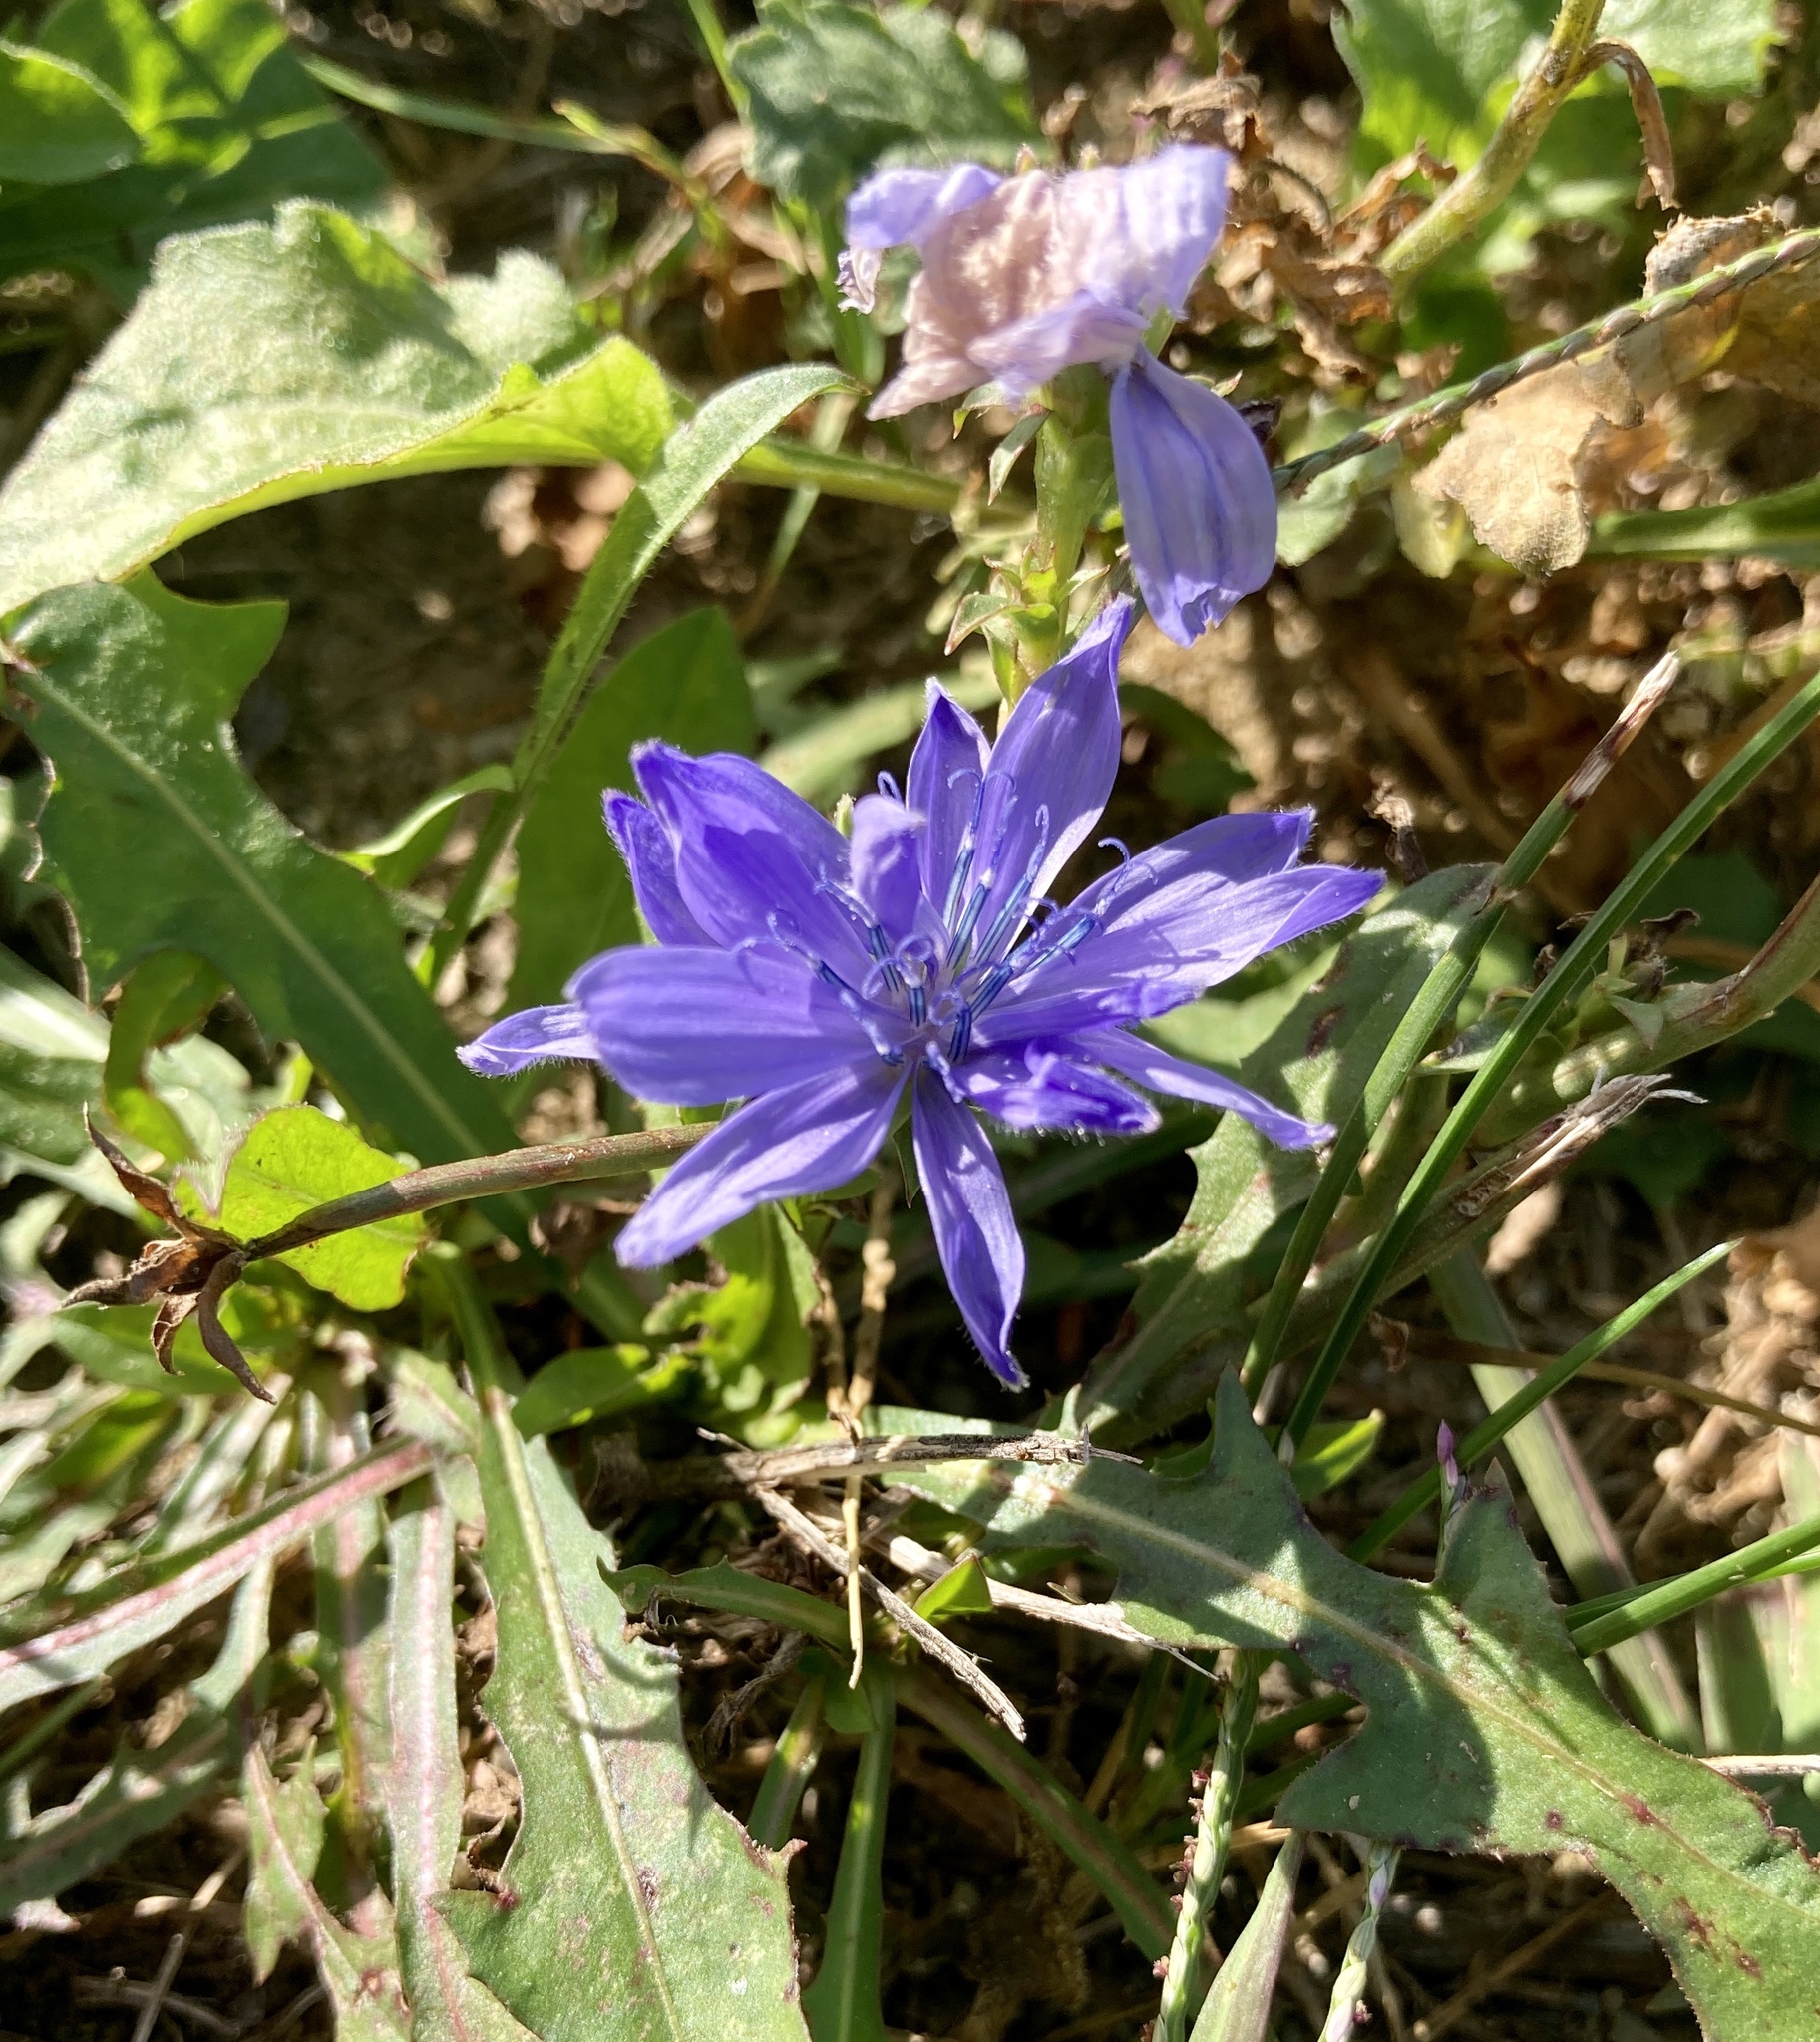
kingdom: Plantae
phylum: Tracheophyta
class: Magnoliopsida
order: Asterales
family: Asteraceae
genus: Cichorium
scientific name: Cichorium intybus
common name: Chicory
